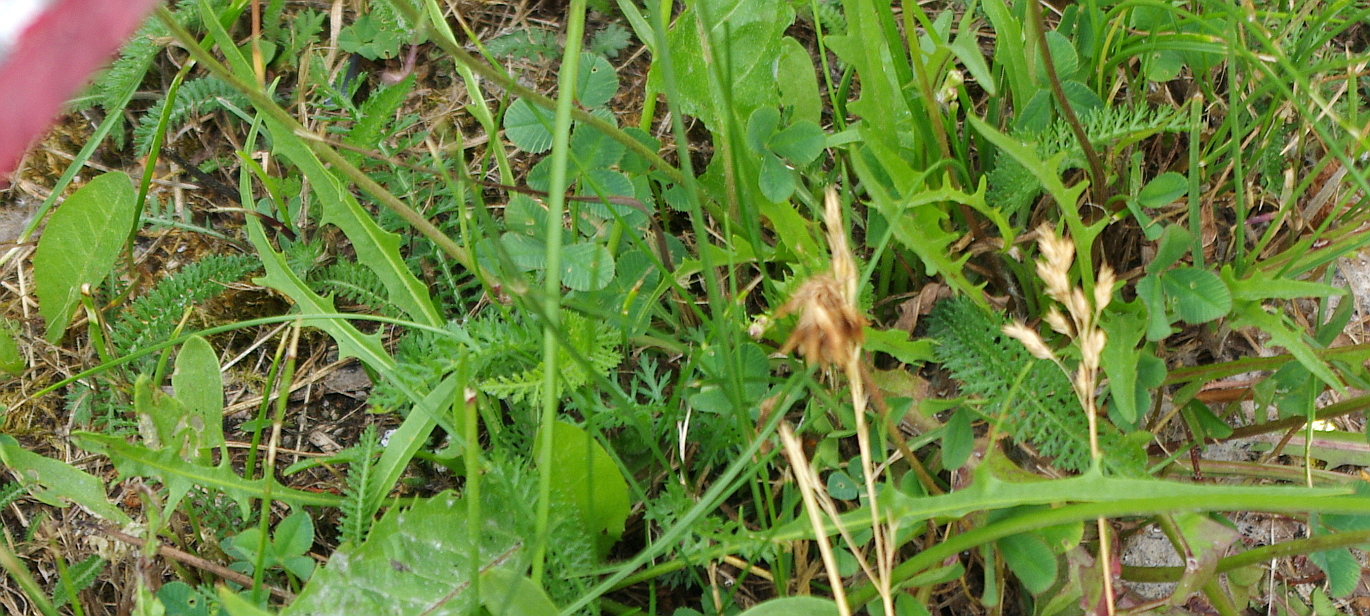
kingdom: Plantae
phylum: Tracheophyta
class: Magnoliopsida
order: Asterales
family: Asteraceae
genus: Scorzoneroides
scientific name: Scorzoneroides autumnalis
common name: Autumn hawkbit
